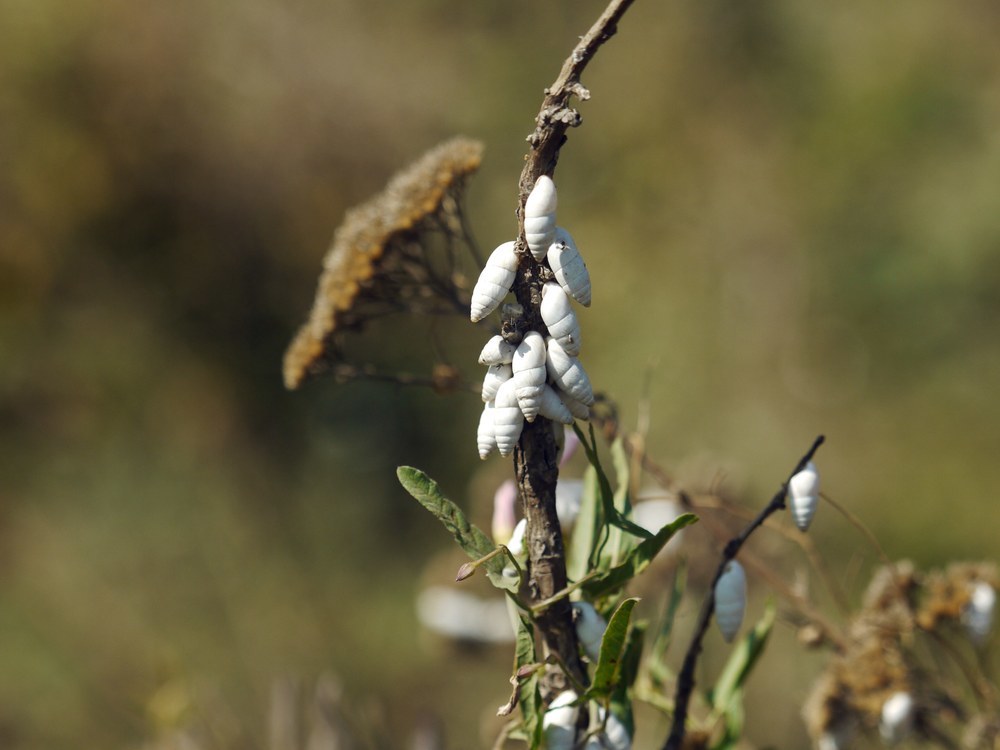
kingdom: Animalia
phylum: Mollusca
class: Gastropoda
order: Stylommatophora
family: Enidae
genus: Brephulopsis
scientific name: Brephulopsis cylindrica
